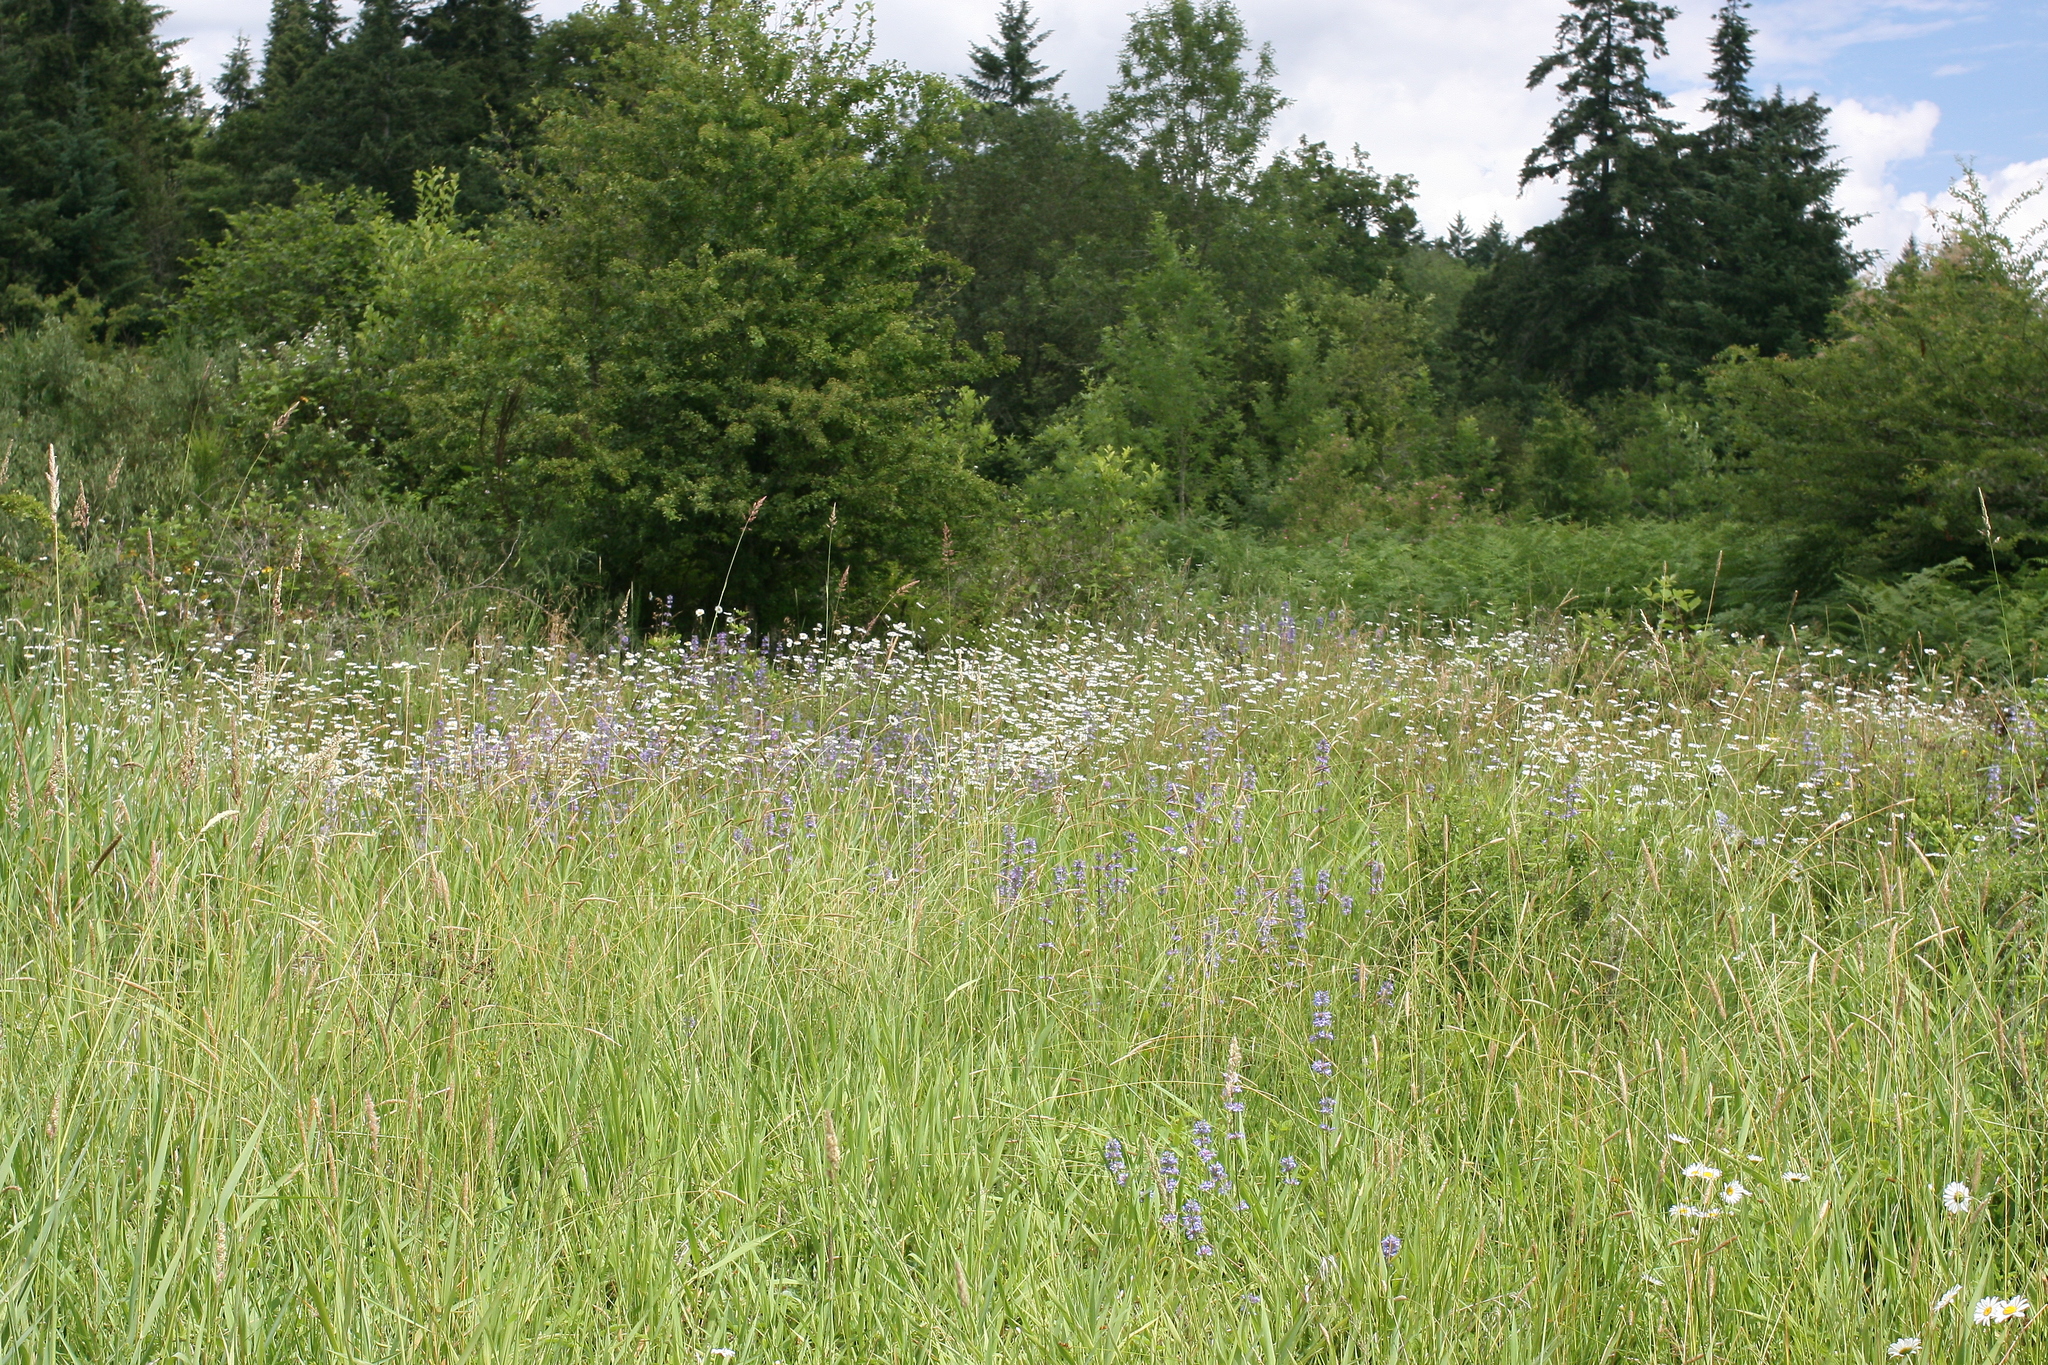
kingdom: Plantae
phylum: Tracheophyta
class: Magnoliopsida
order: Lamiales
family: Plantaginaceae
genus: Penstemon
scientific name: Penstemon hesperius
